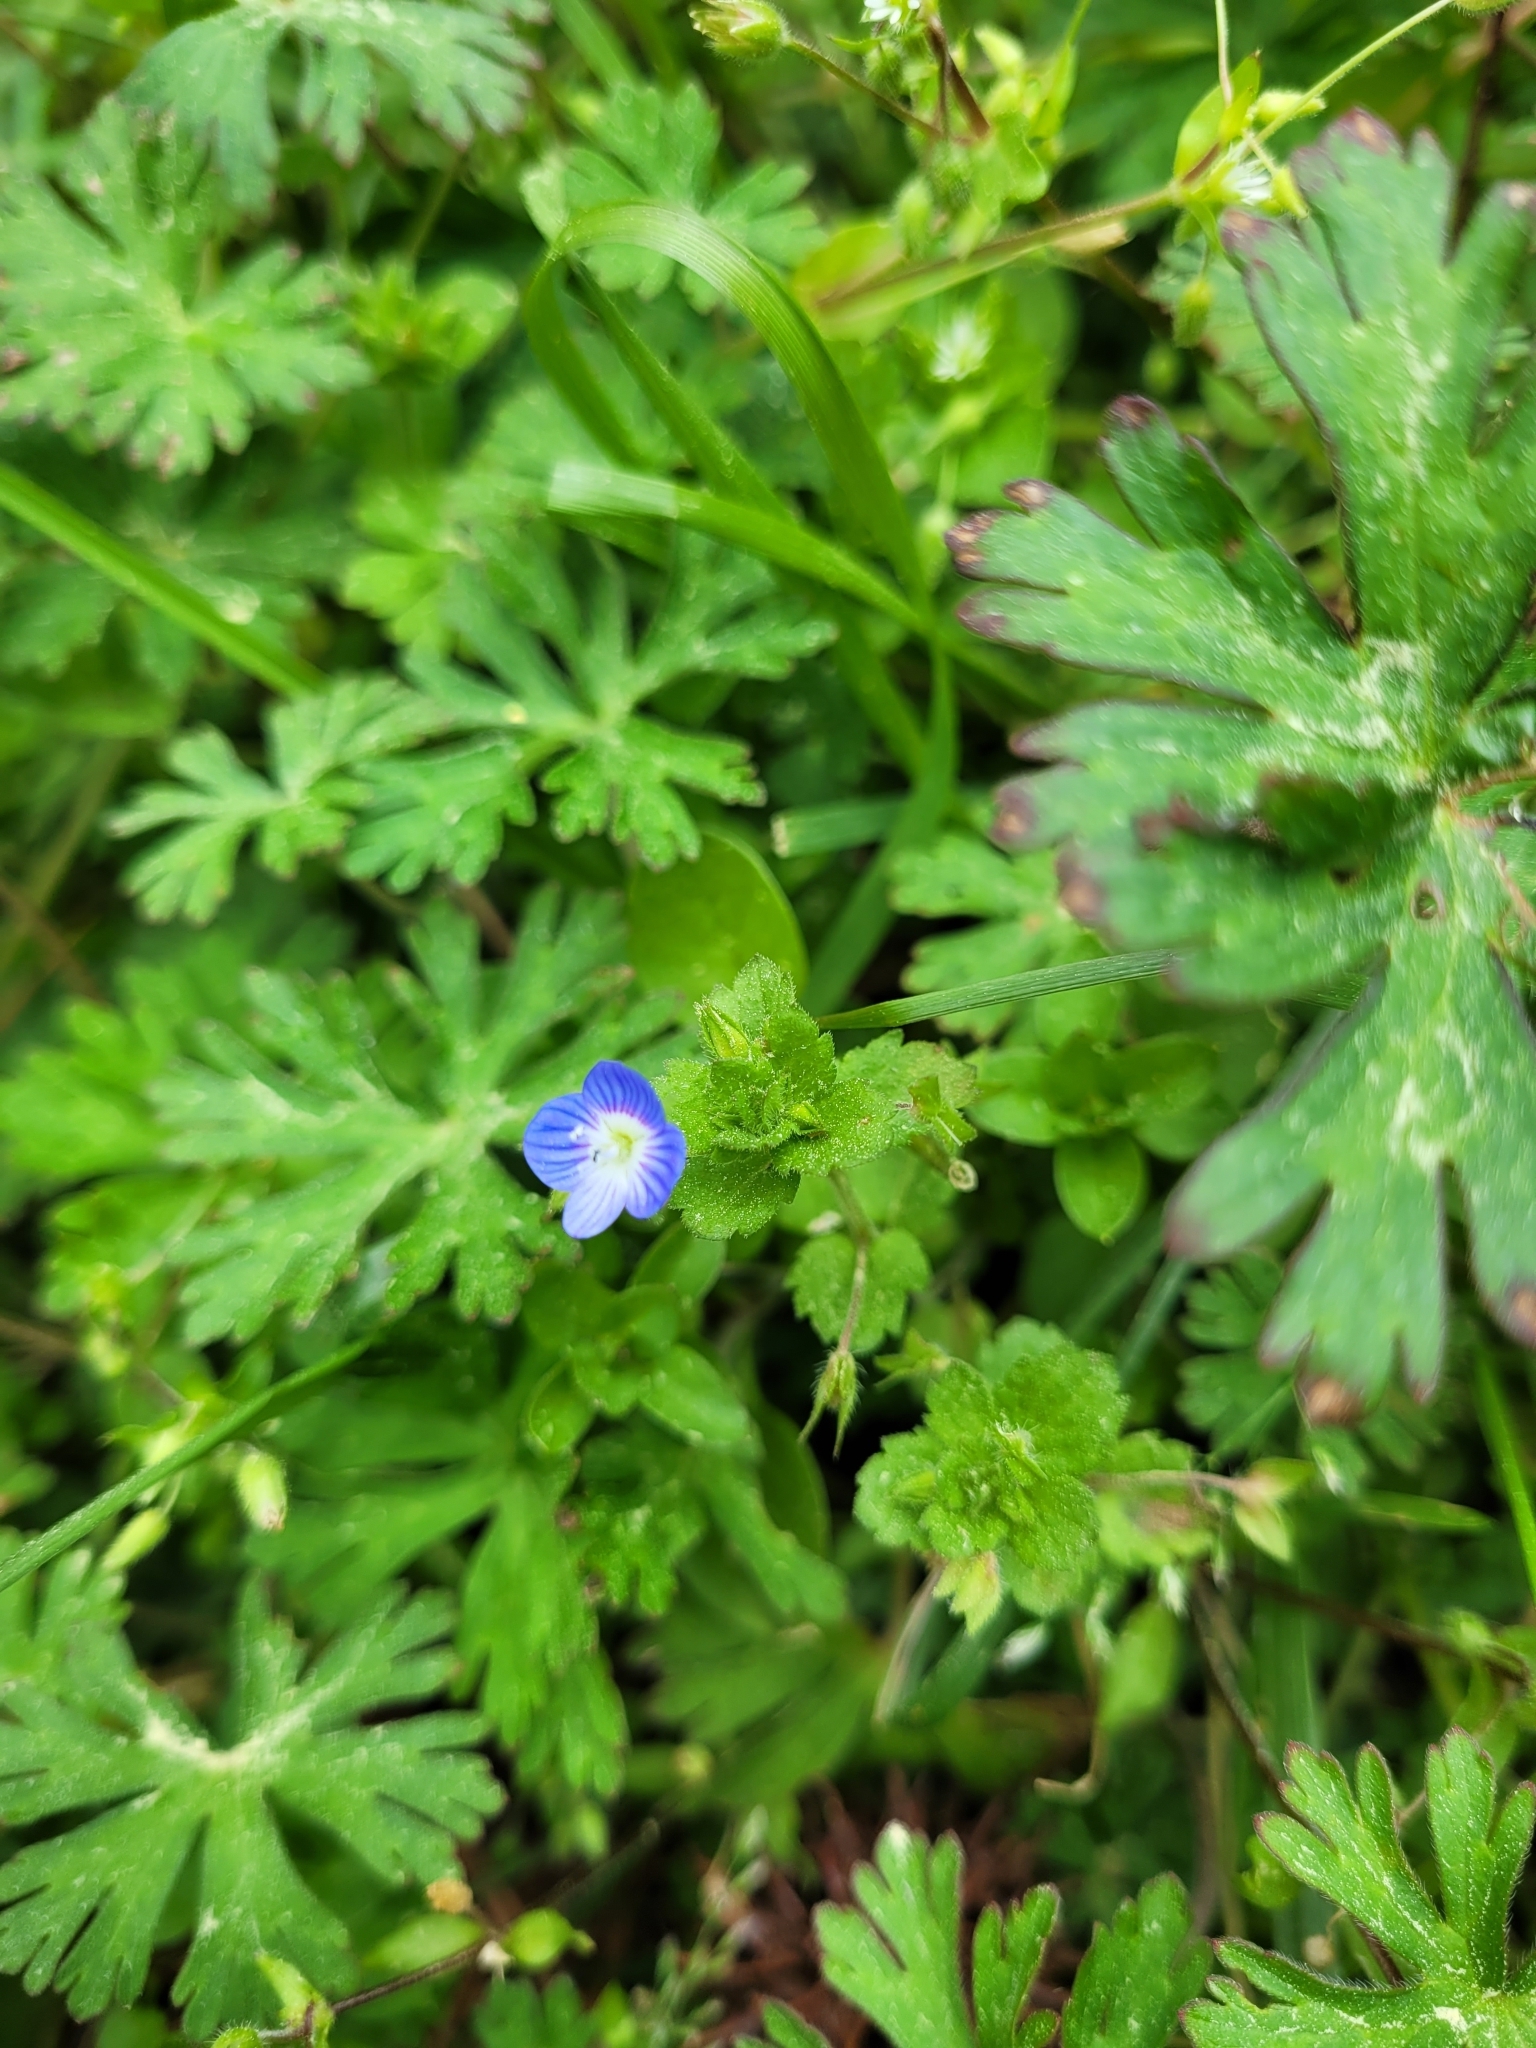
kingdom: Plantae
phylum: Tracheophyta
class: Magnoliopsida
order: Lamiales
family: Plantaginaceae
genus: Veronica
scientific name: Veronica persica
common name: Common field-speedwell
